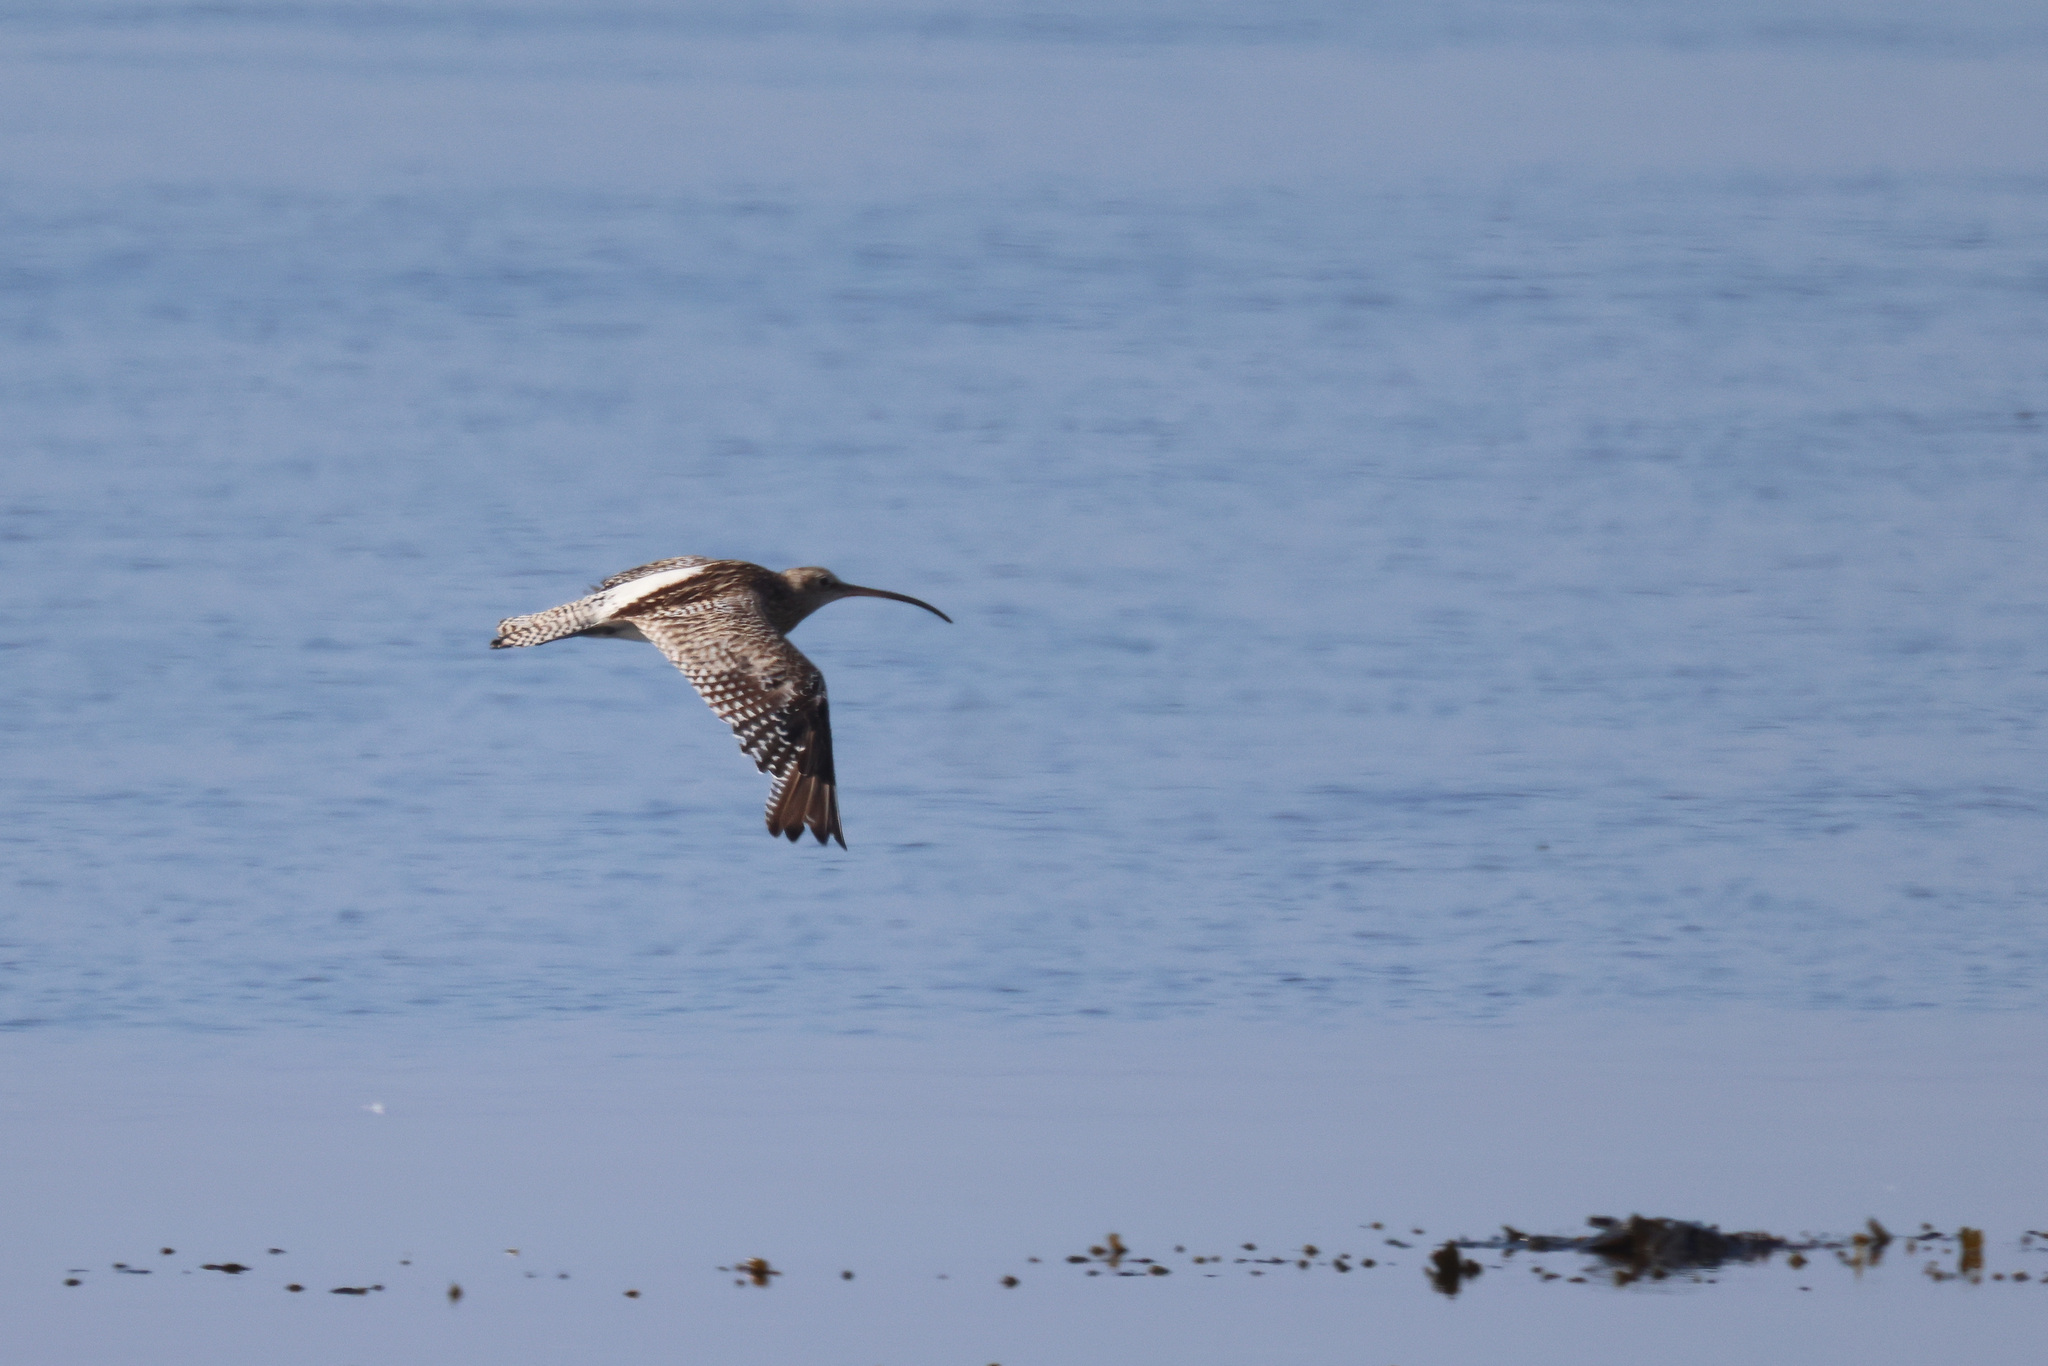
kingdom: Animalia
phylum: Chordata
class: Aves
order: Charadriiformes
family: Scolopacidae
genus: Numenius
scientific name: Numenius arquata
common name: Eurasian curlew
